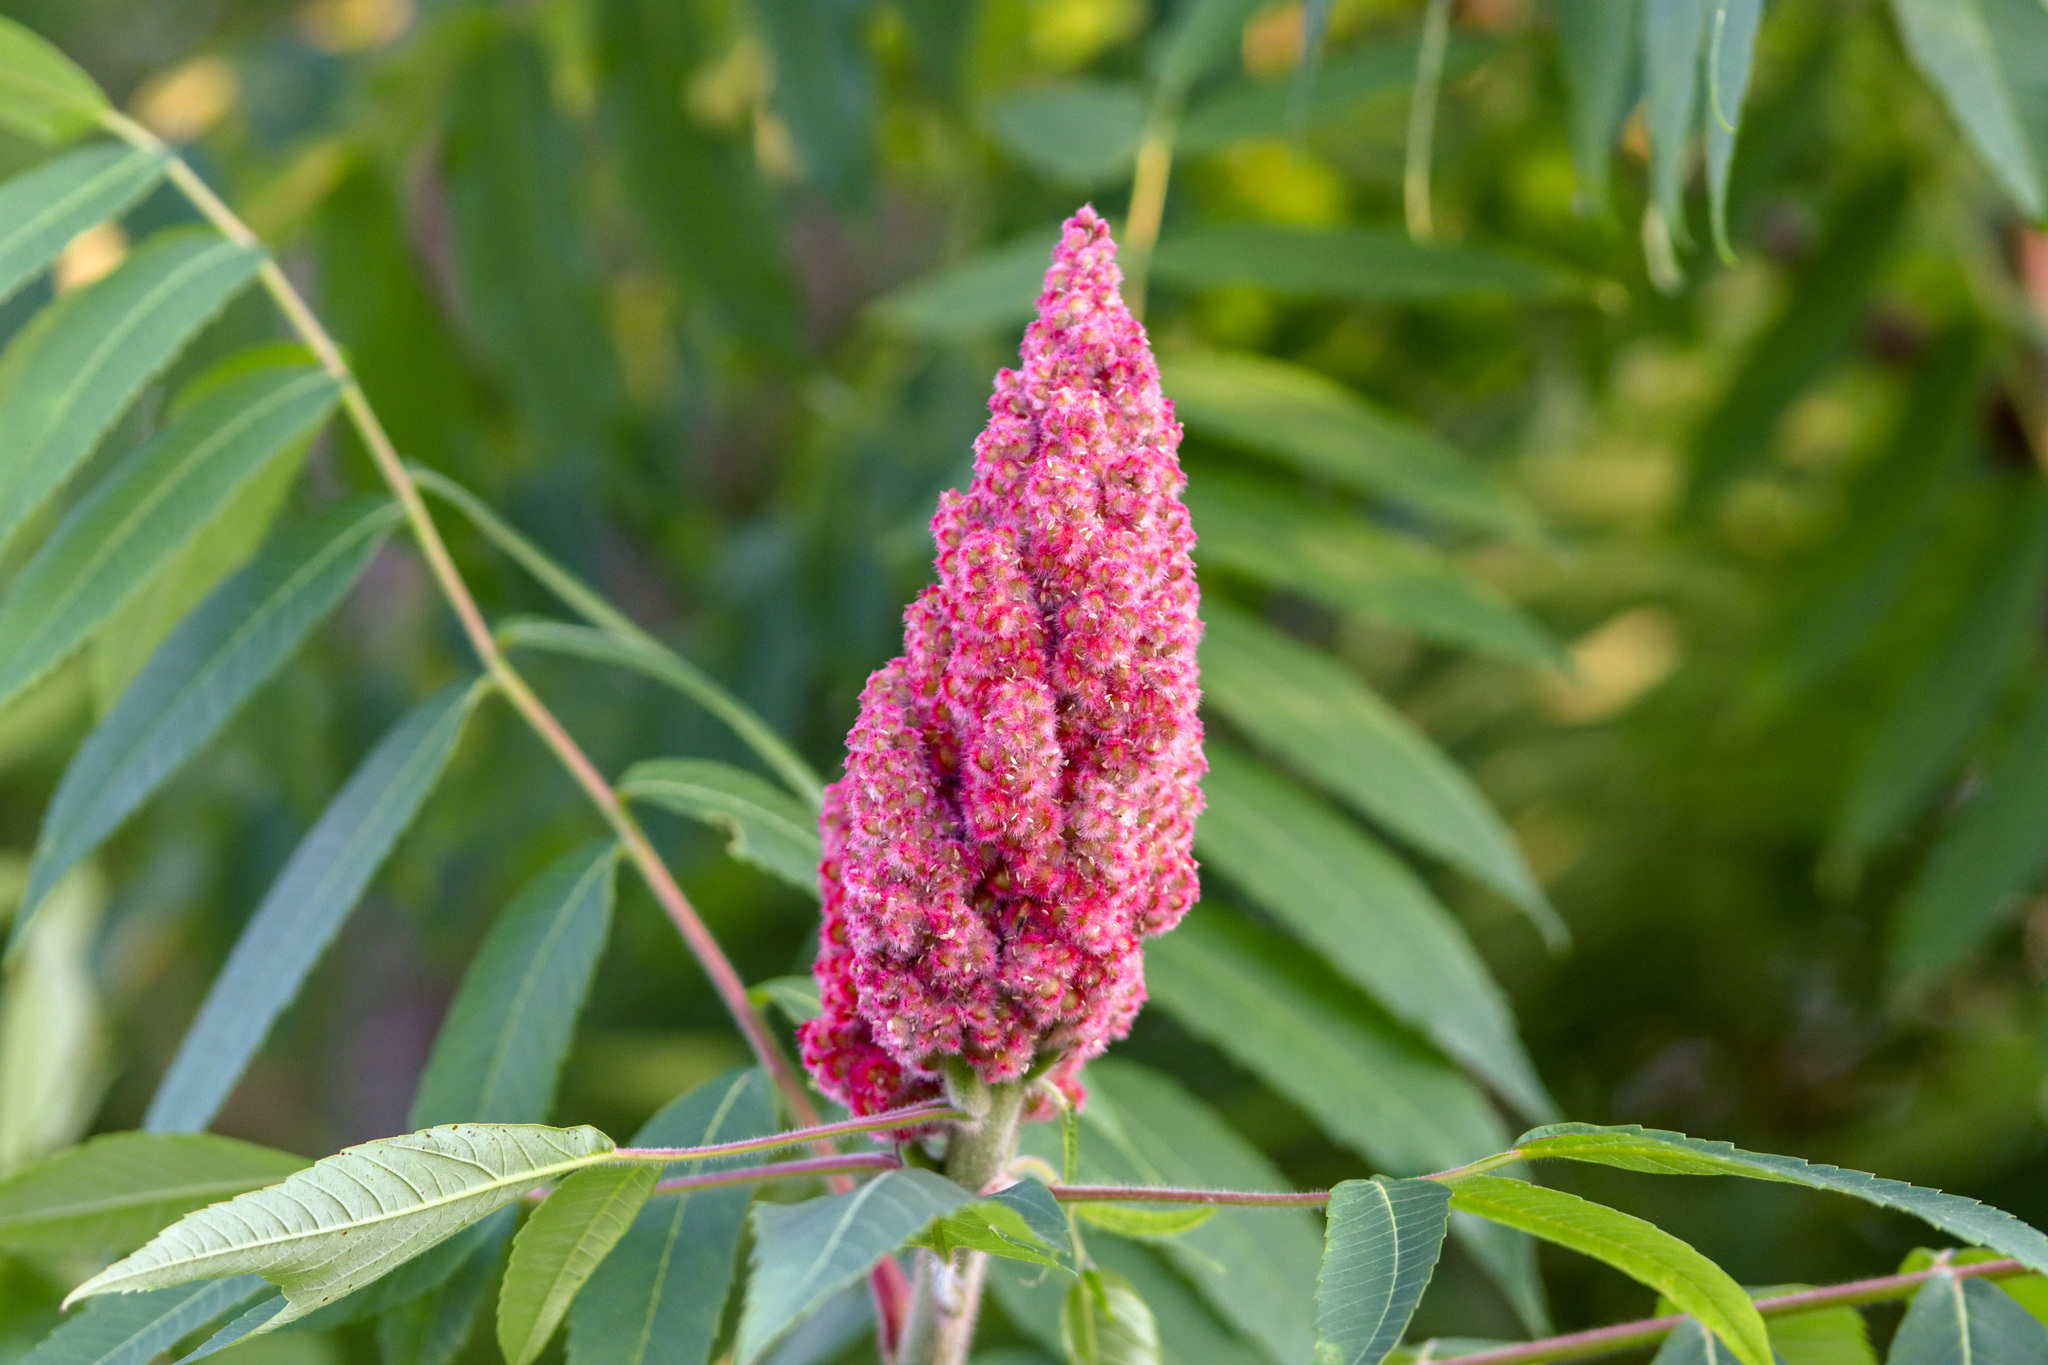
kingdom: Plantae
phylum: Tracheophyta
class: Magnoliopsida
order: Sapindales
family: Anacardiaceae
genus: Rhus
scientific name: Rhus typhina
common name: Staghorn sumac
